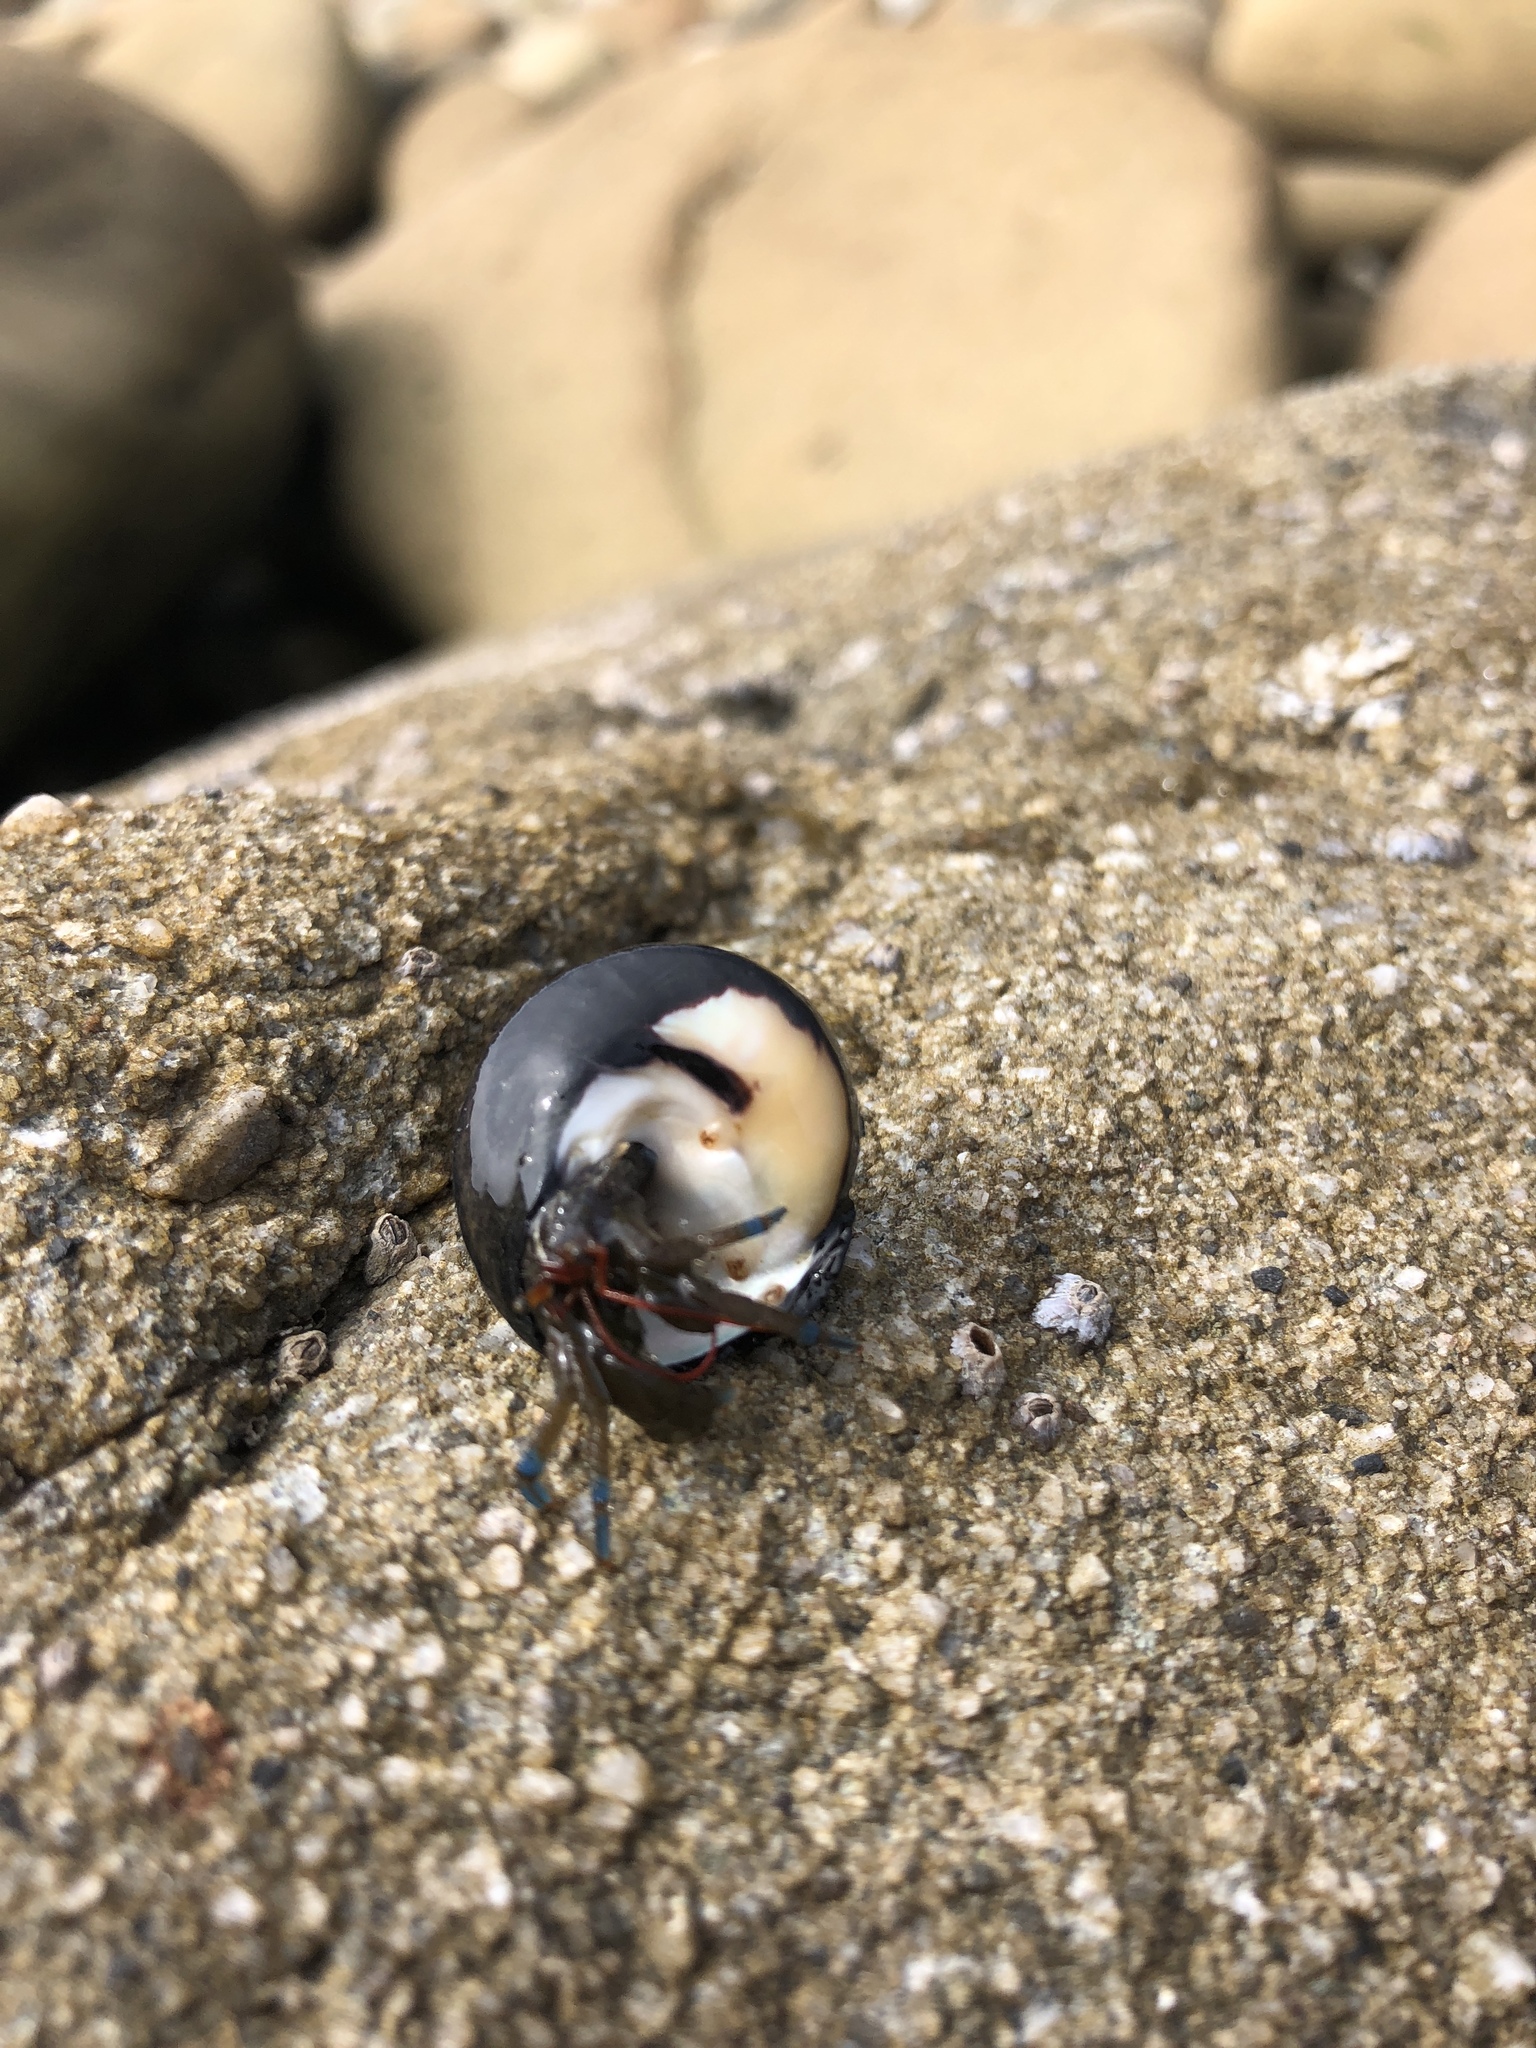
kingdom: Animalia
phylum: Mollusca
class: Gastropoda
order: Trochida
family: Tegulidae
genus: Tegula
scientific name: Tegula funebralis
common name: Black tegula
